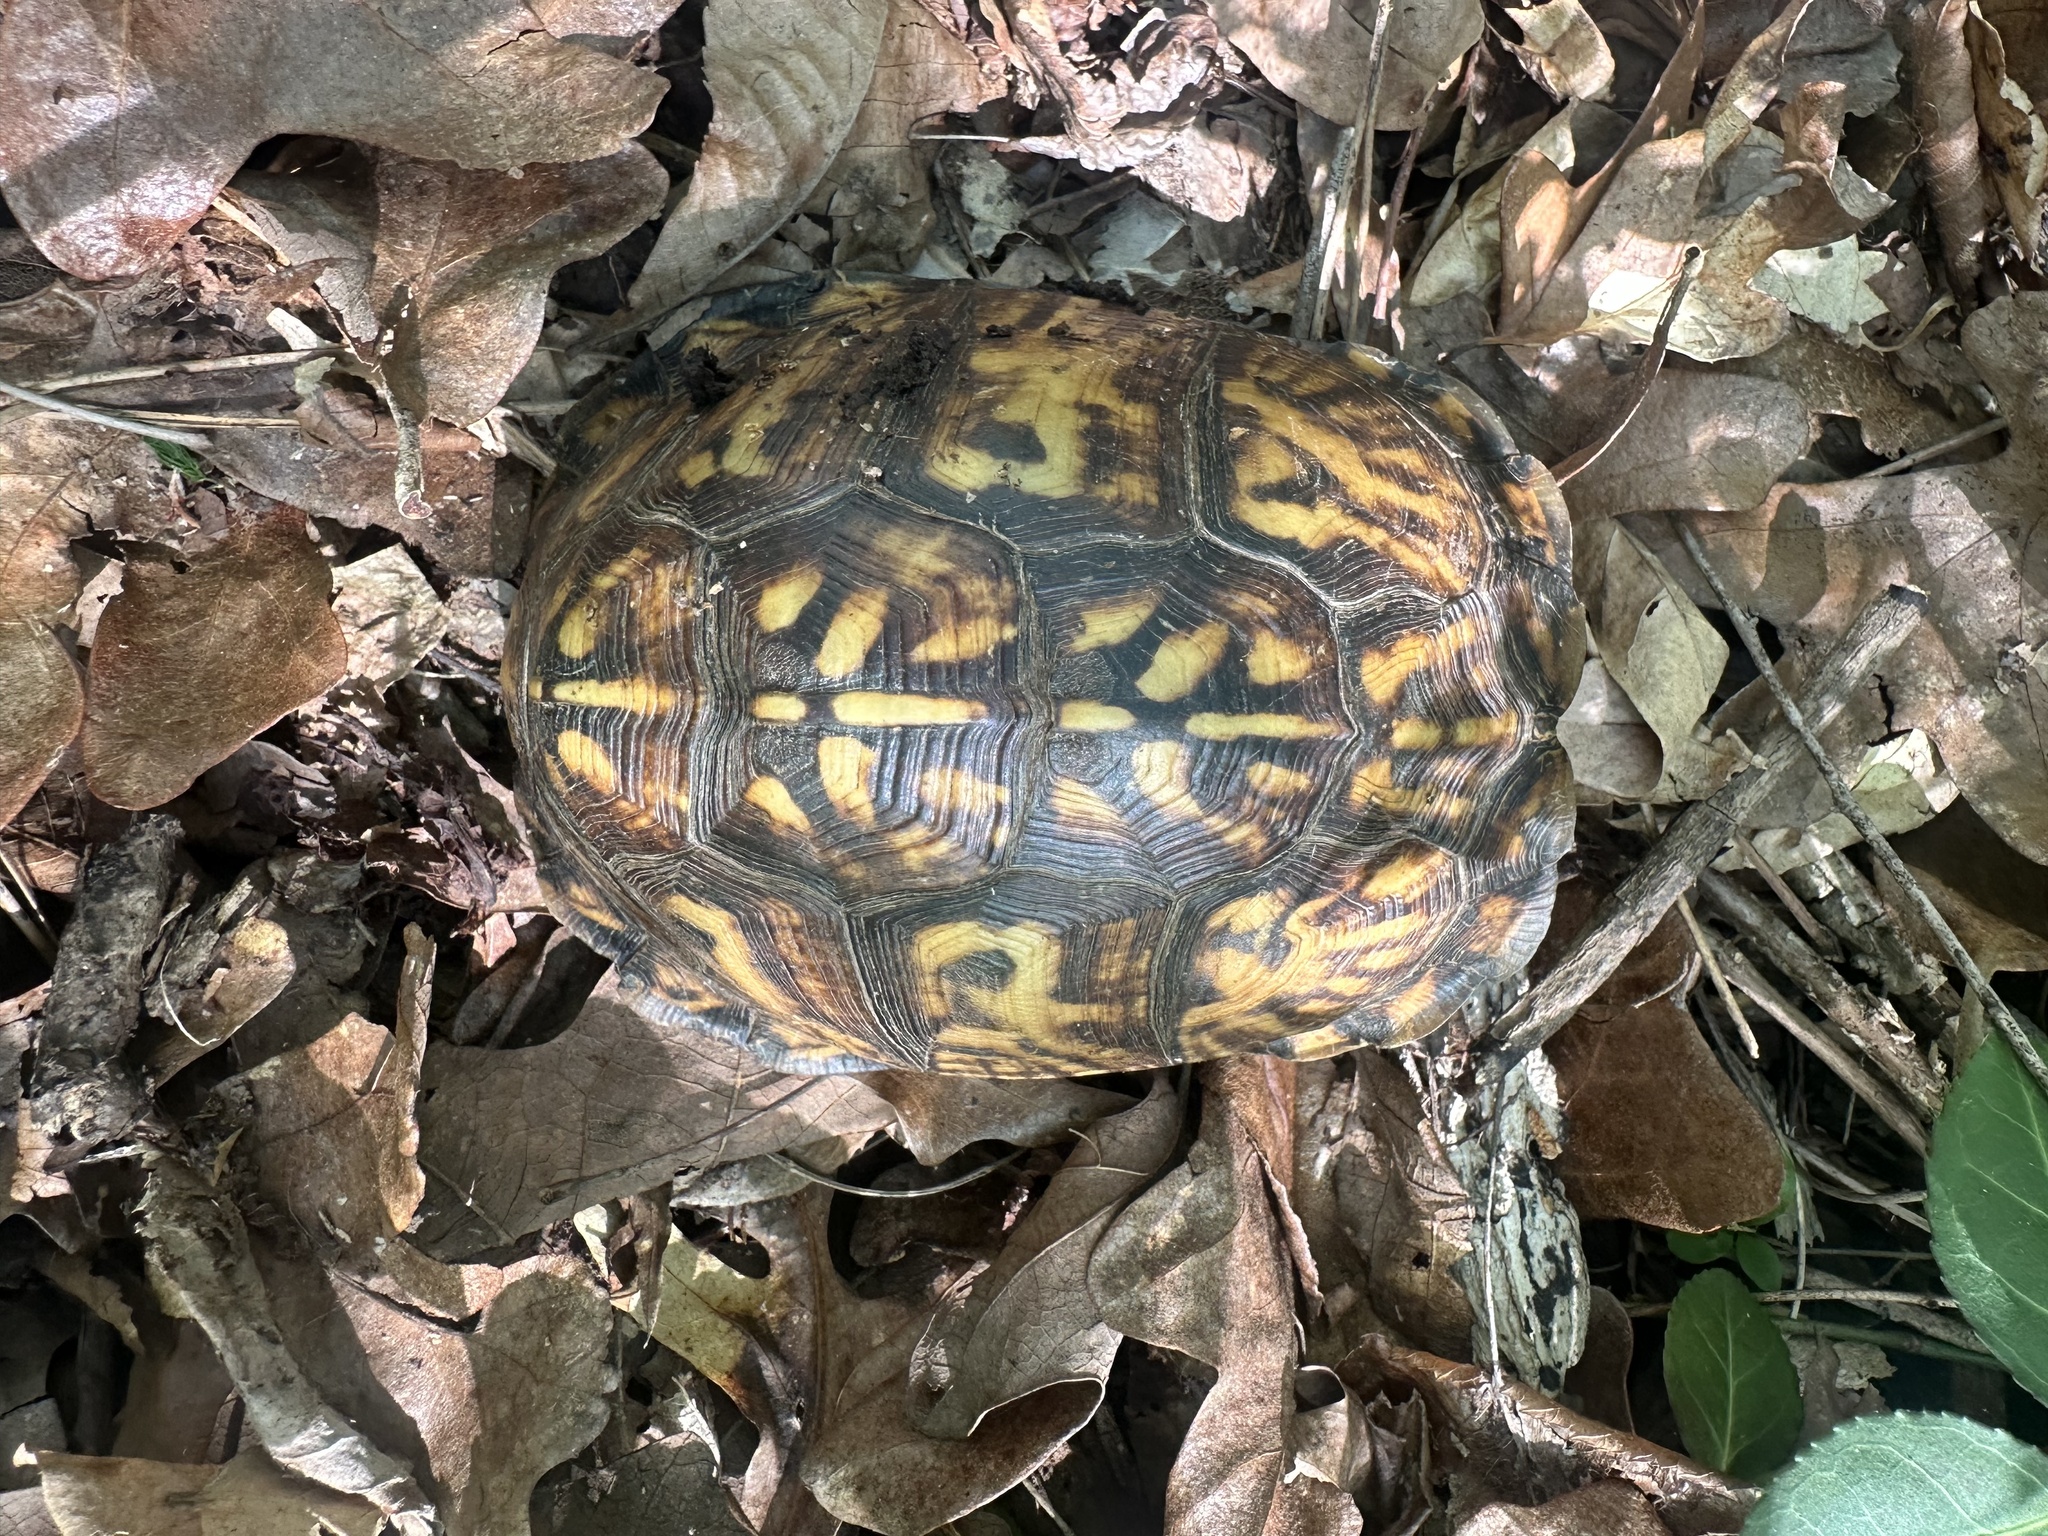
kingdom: Animalia
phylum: Chordata
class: Testudines
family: Emydidae
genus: Terrapene
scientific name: Terrapene carolina
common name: Common box turtle
